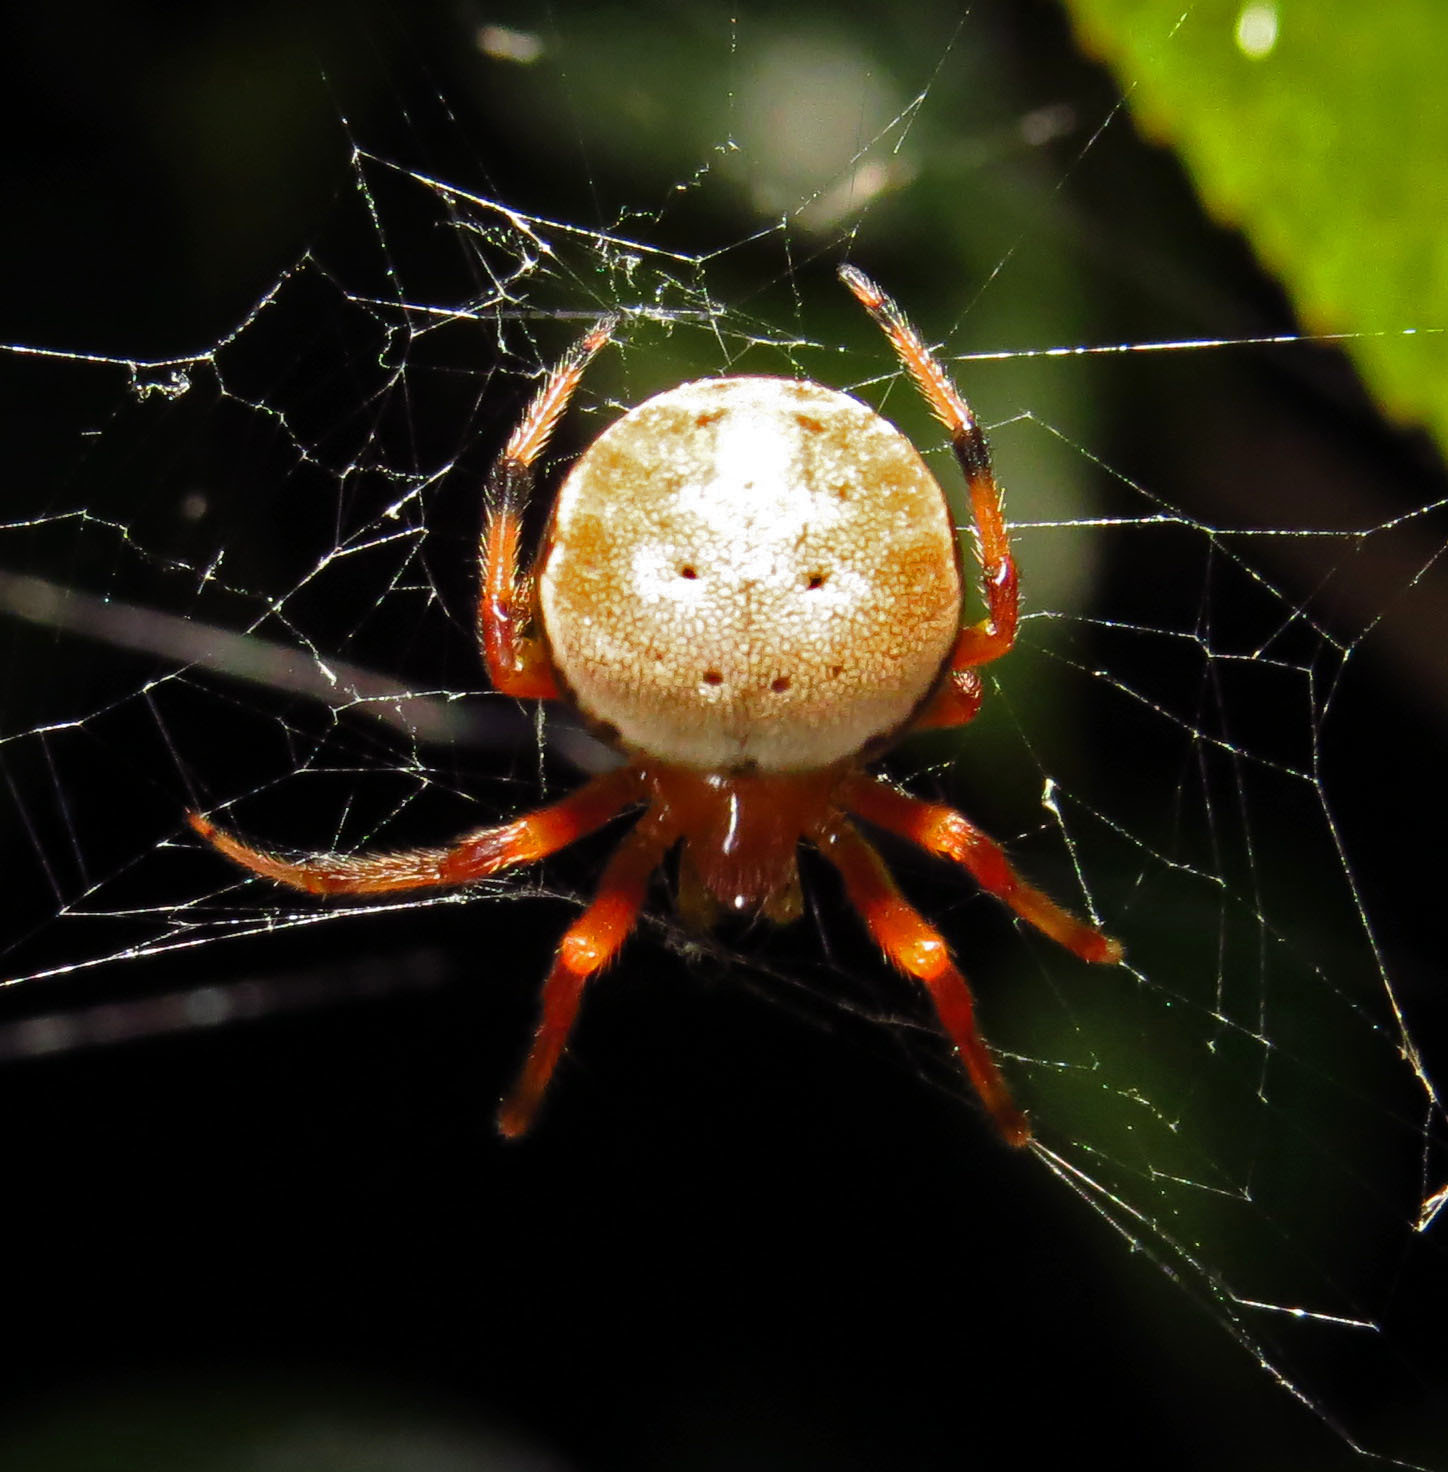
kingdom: Animalia
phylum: Arthropoda
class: Arachnida
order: Araneae
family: Araneidae
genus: Araneus
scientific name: Araneus thaddeus
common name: Lattice orbweaver
